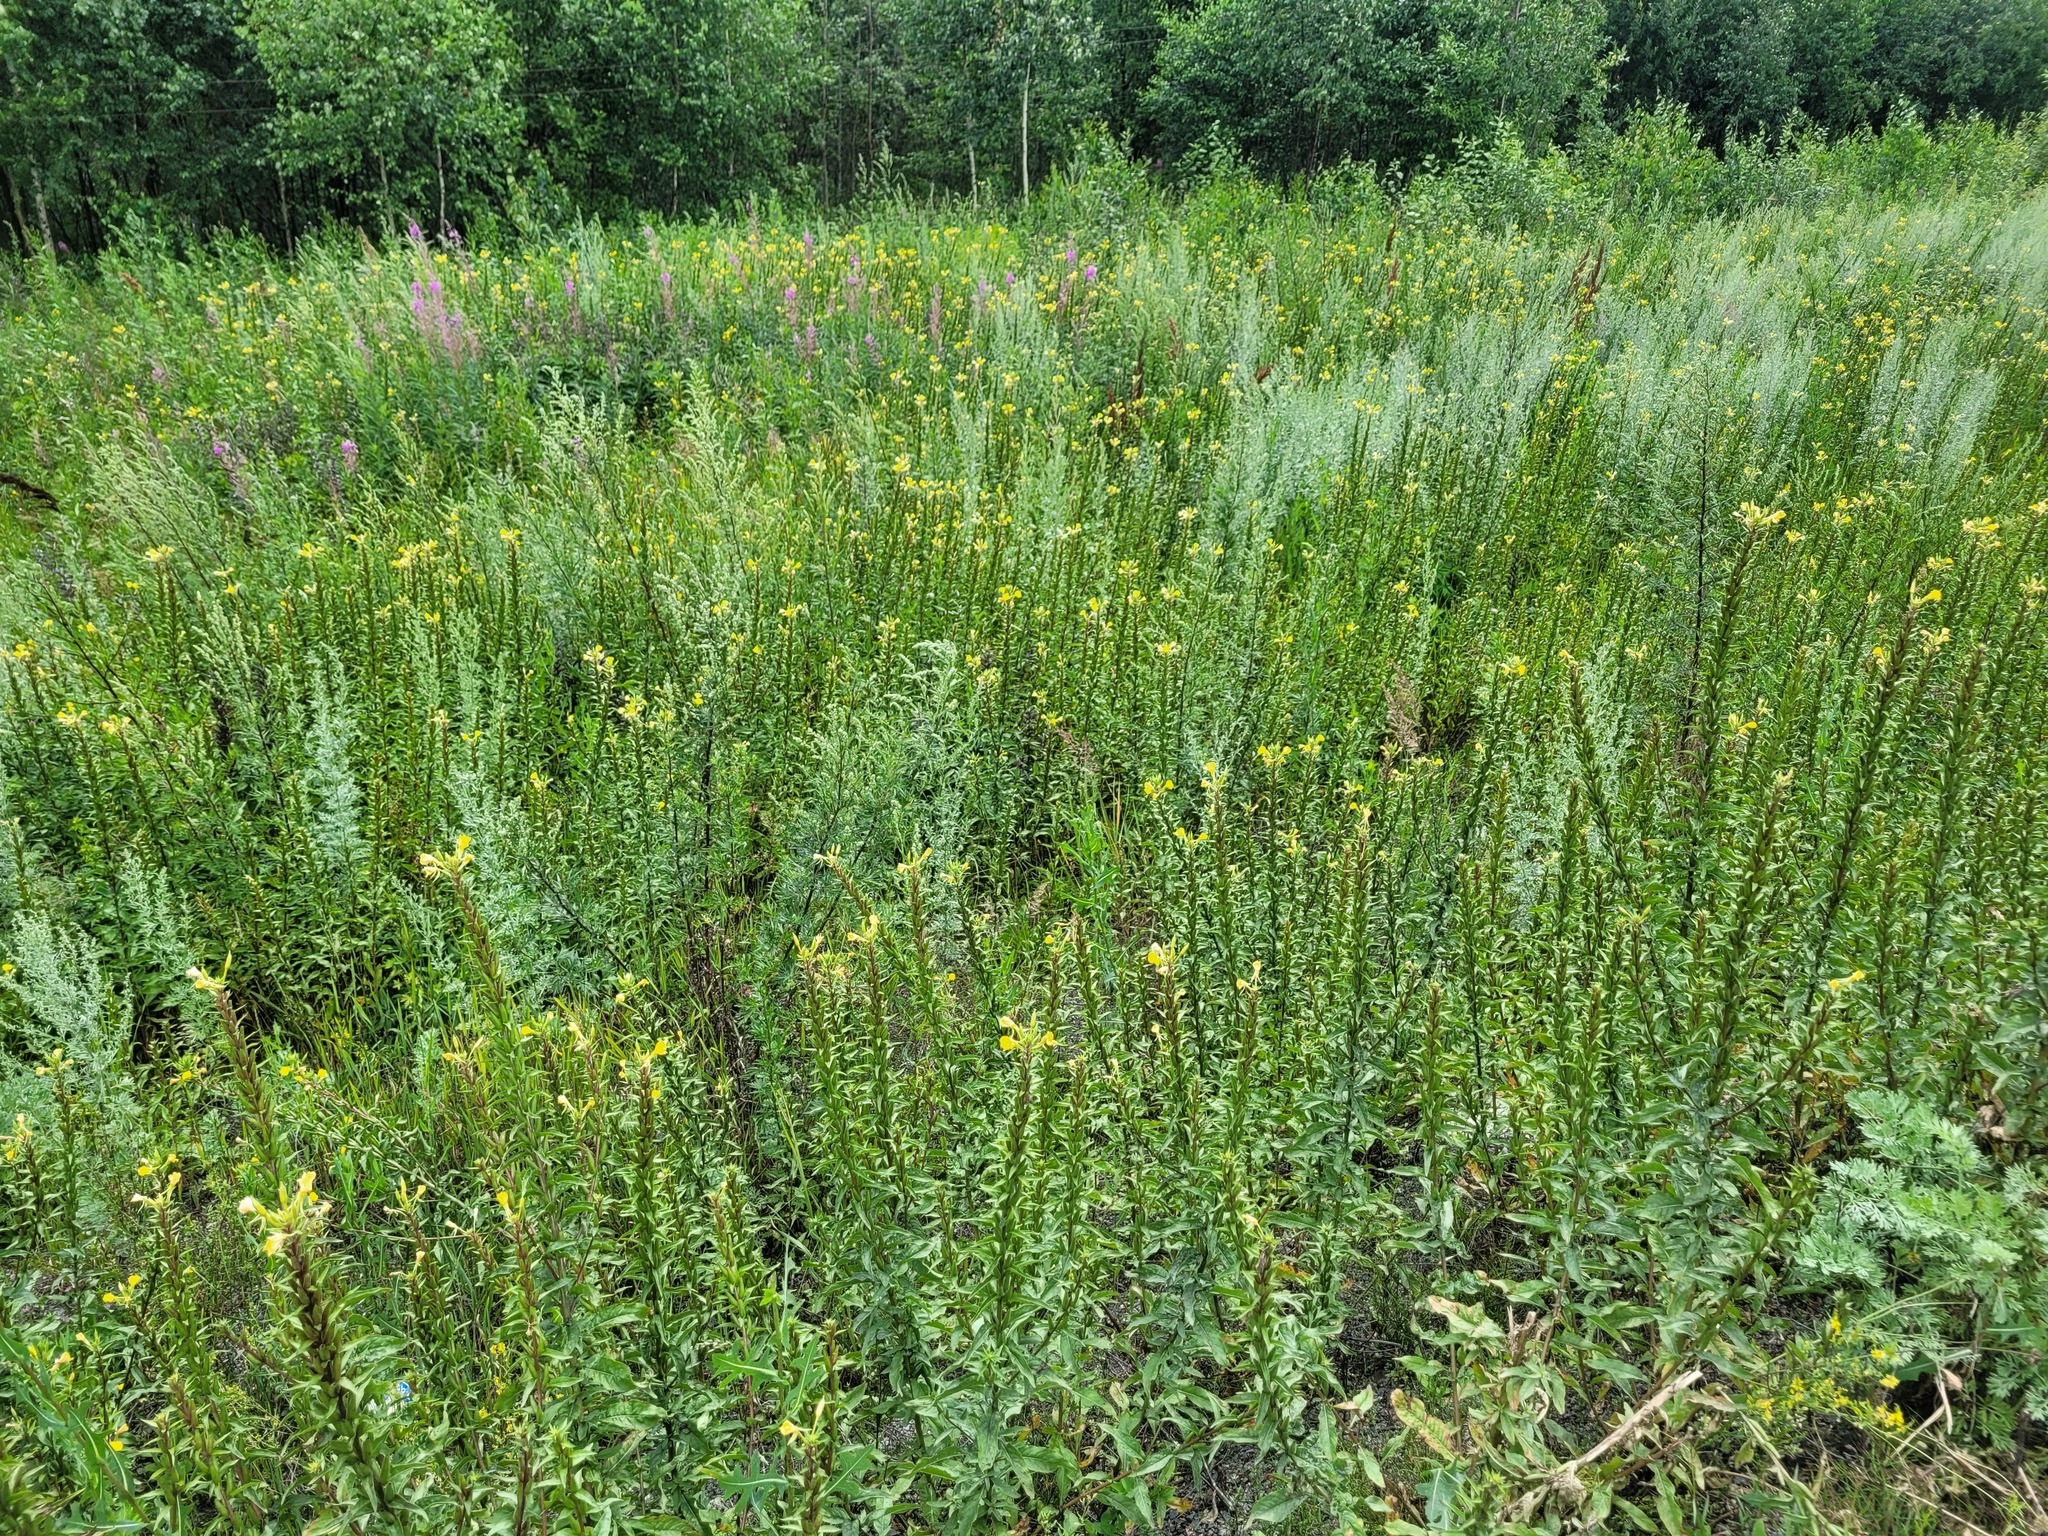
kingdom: Plantae
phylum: Tracheophyta
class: Magnoliopsida
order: Myrtales
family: Onagraceae
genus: Oenothera
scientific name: Oenothera rubricaulis
